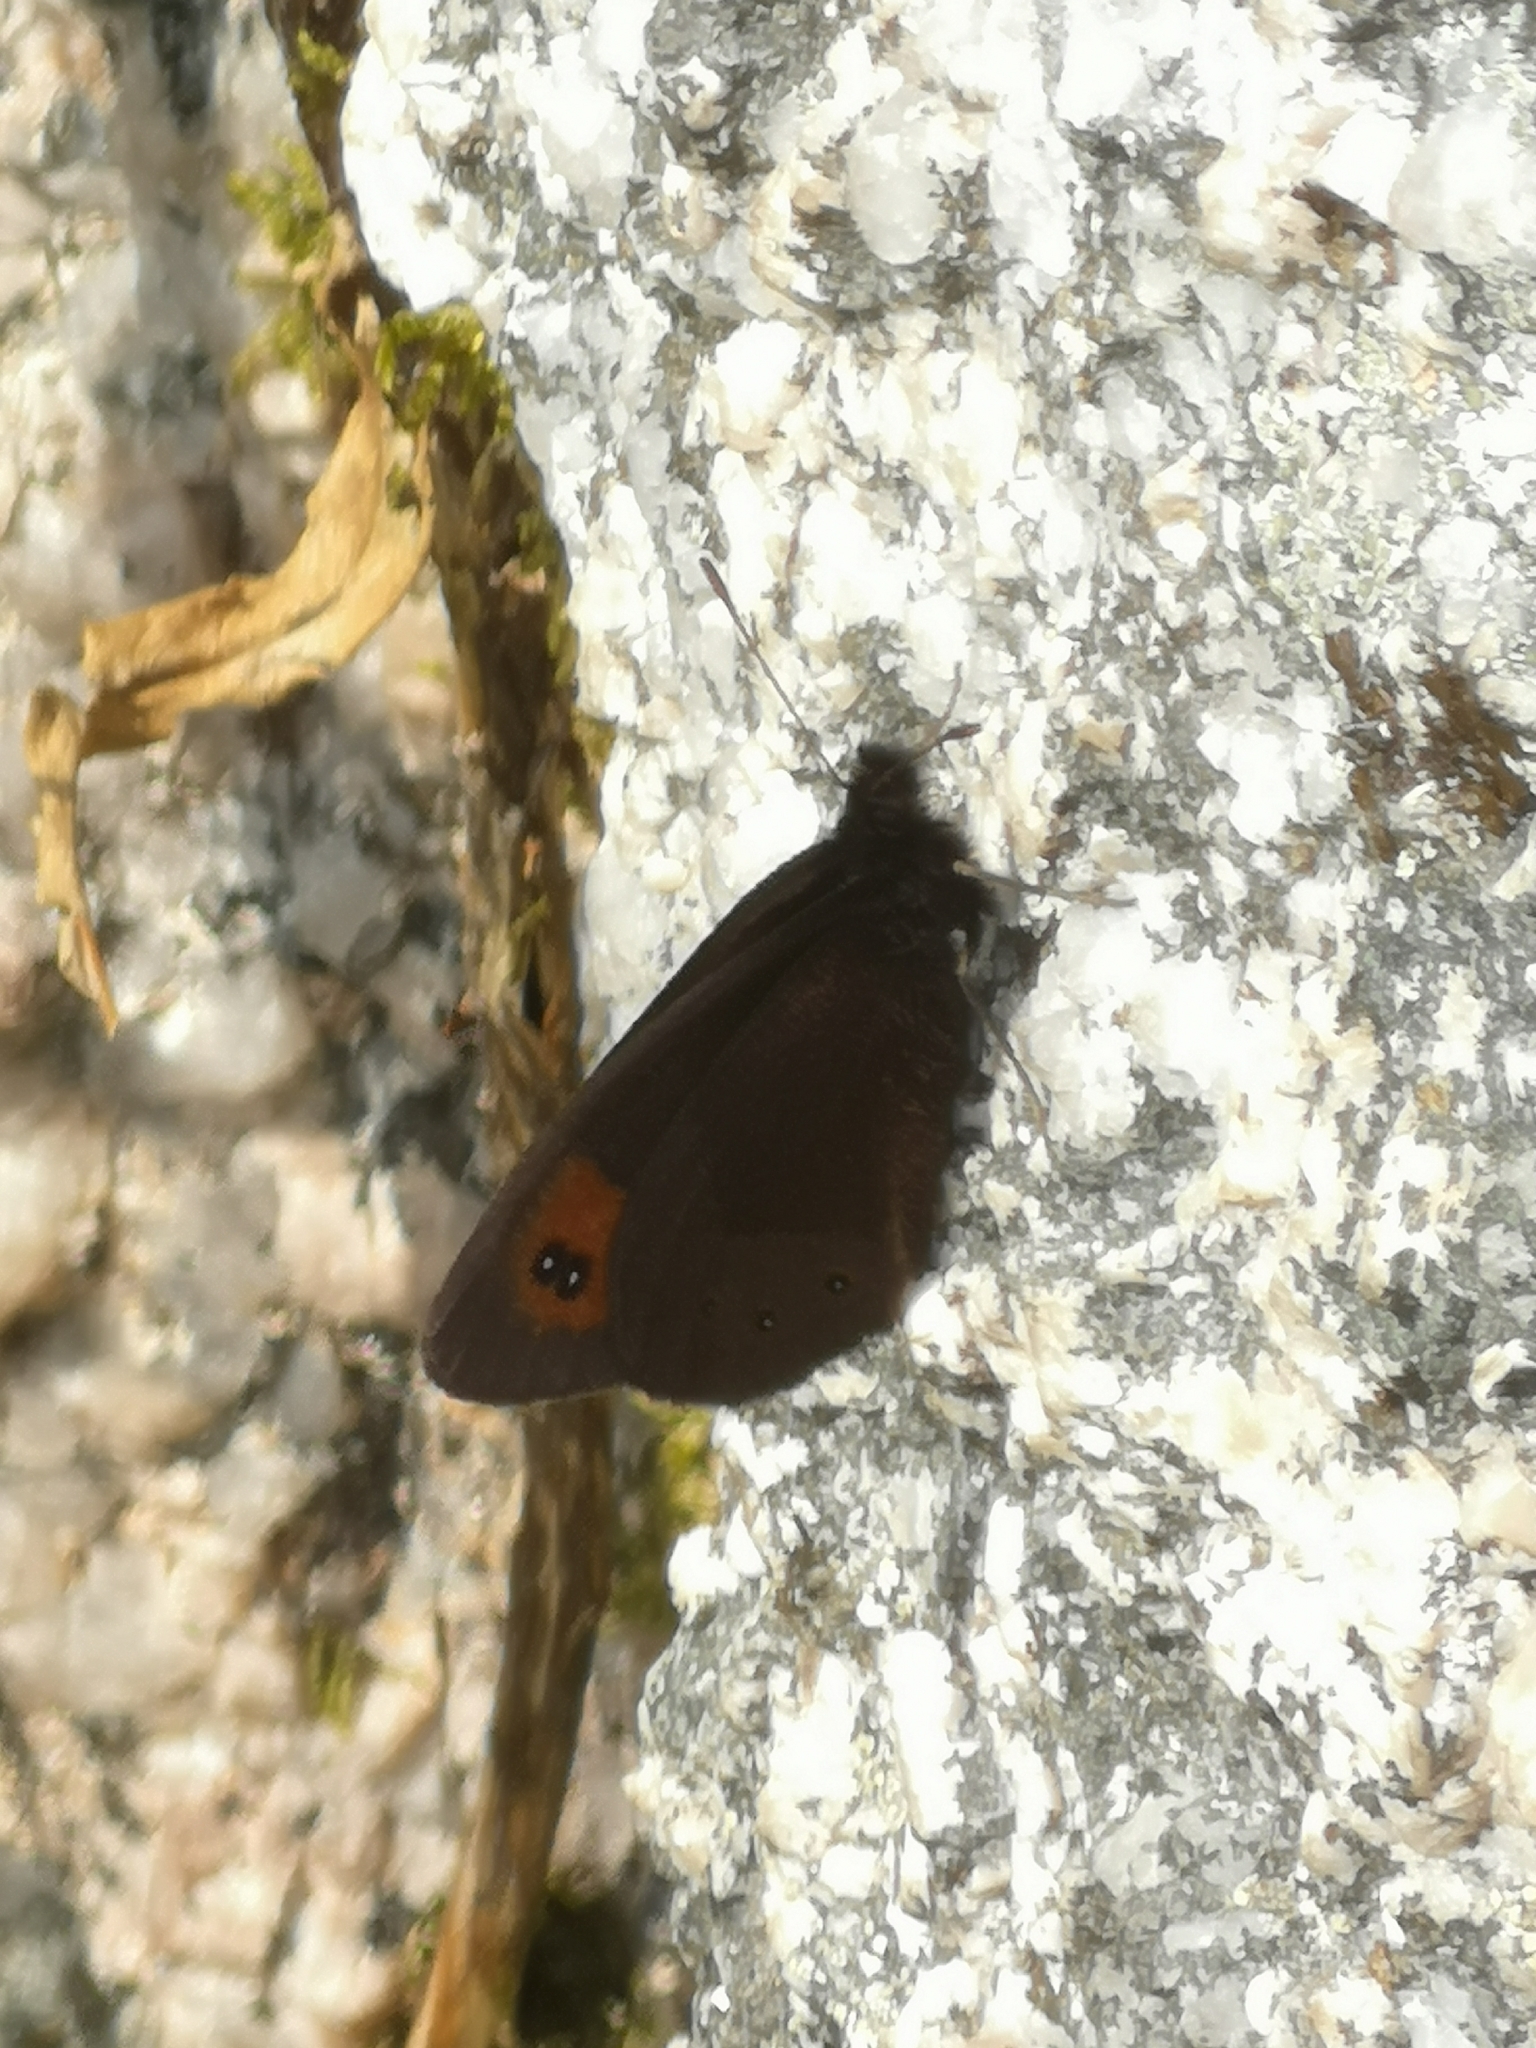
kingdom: Animalia
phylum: Arthropoda
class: Insecta
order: Lepidoptera
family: Nymphalidae
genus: Erebia
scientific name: Erebia meolans
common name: Piedmont ringlet
